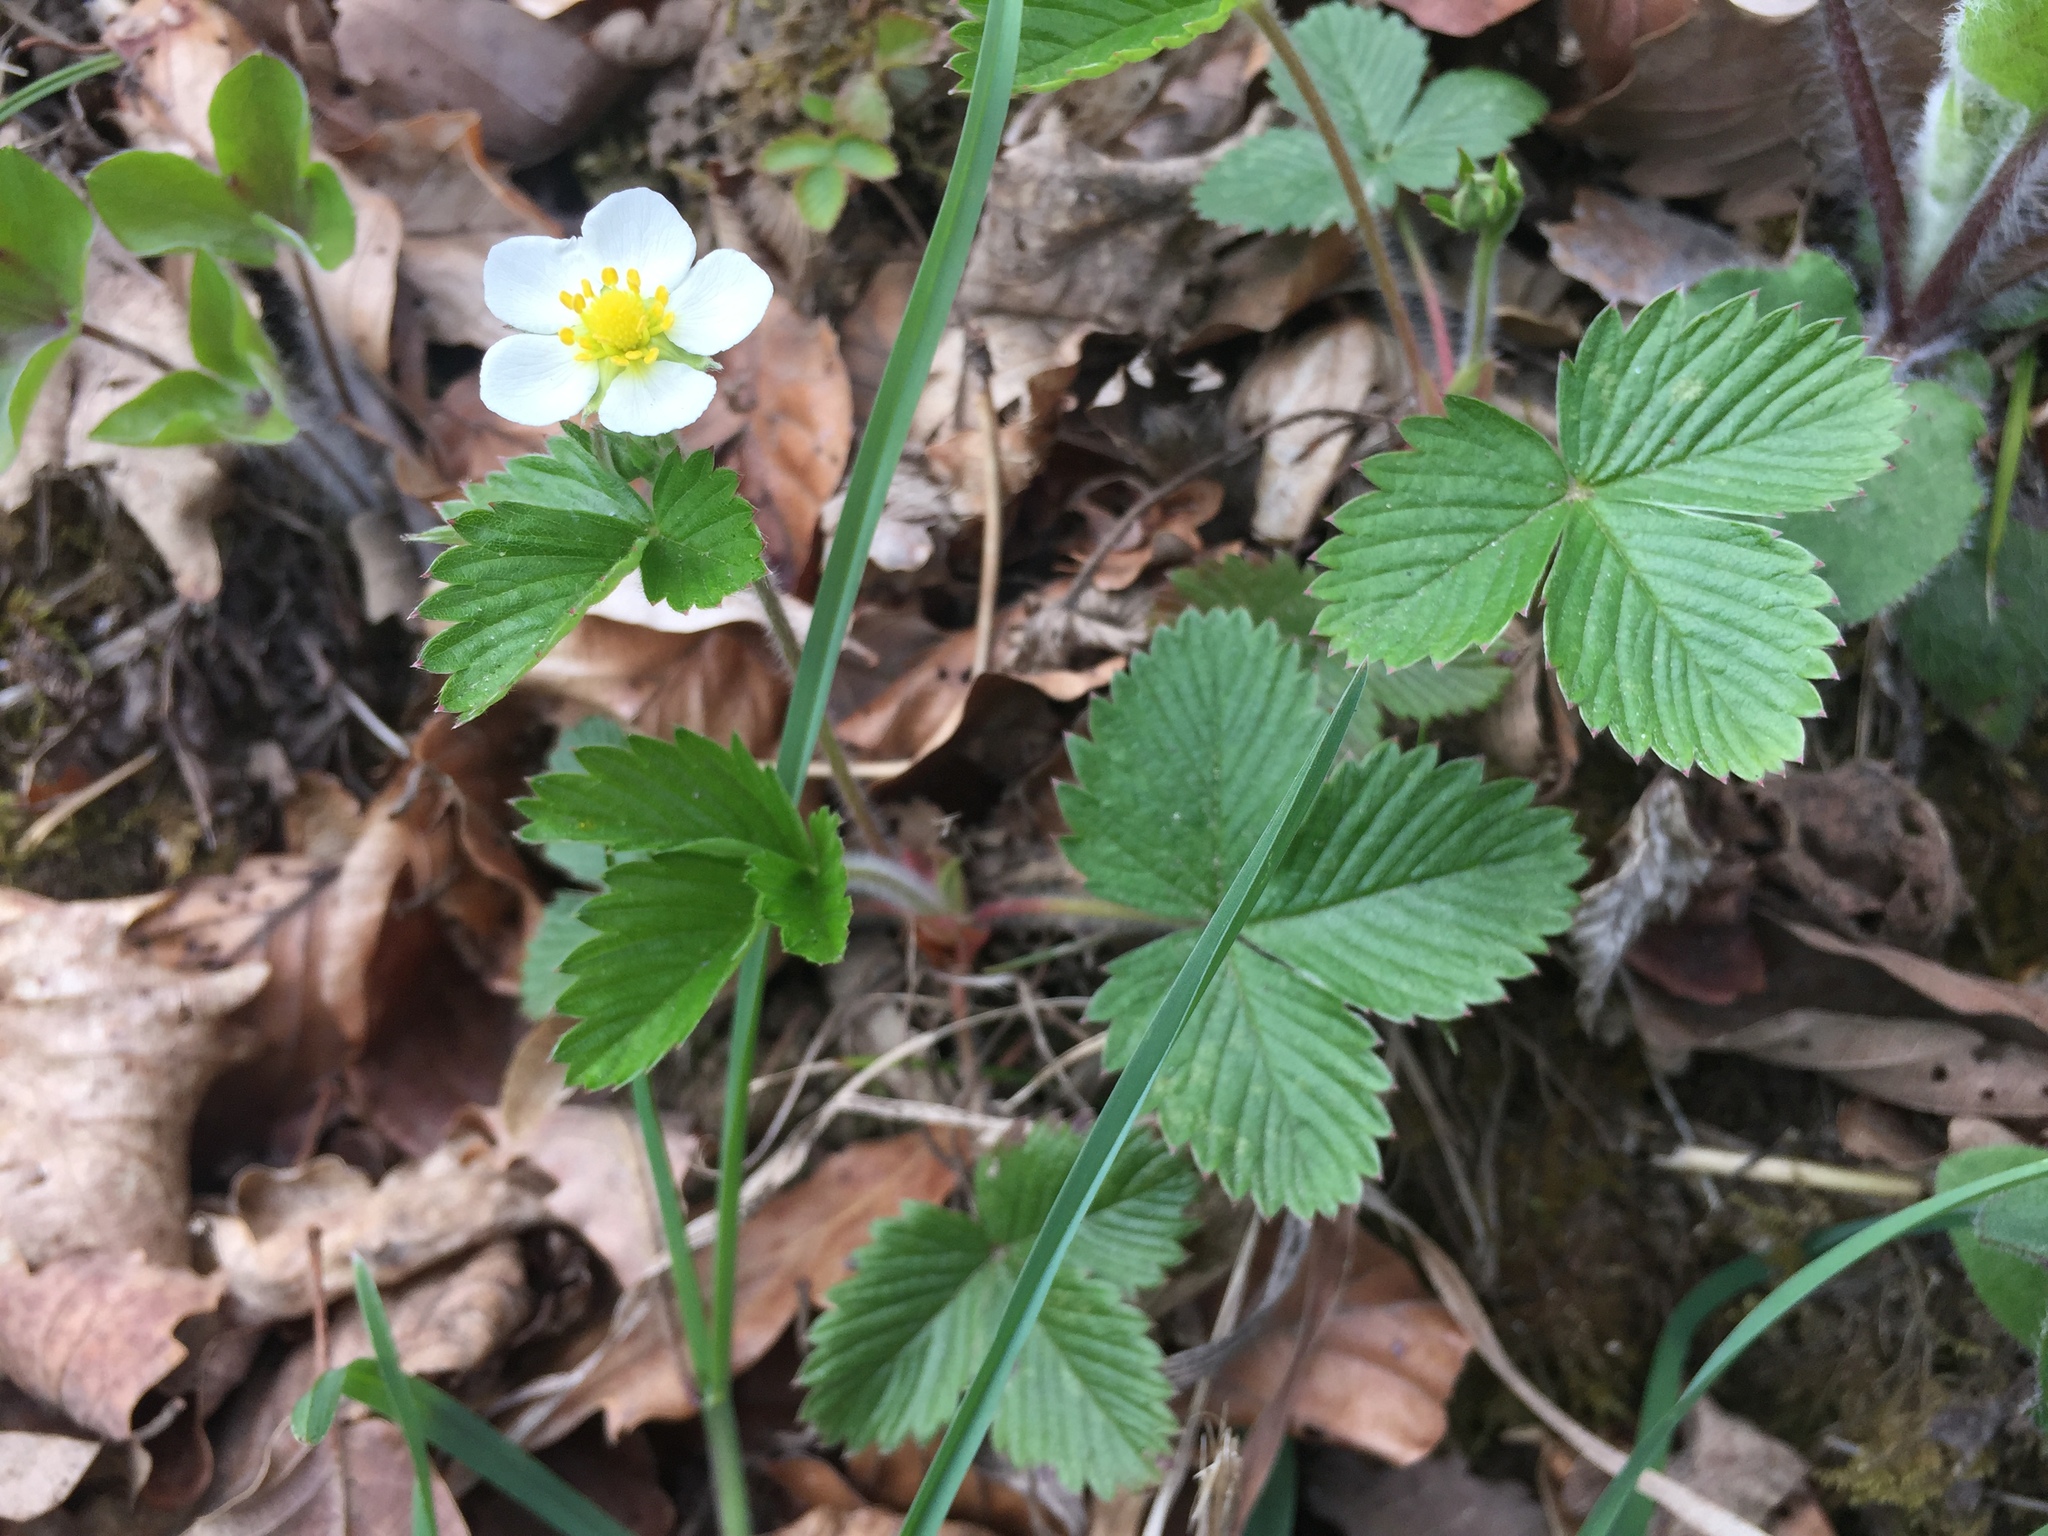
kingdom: Plantae
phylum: Tracheophyta
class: Magnoliopsida
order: Rosales
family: Rosaceae
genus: Fragaria
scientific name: Fragaria vesca
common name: Wild strawberry
